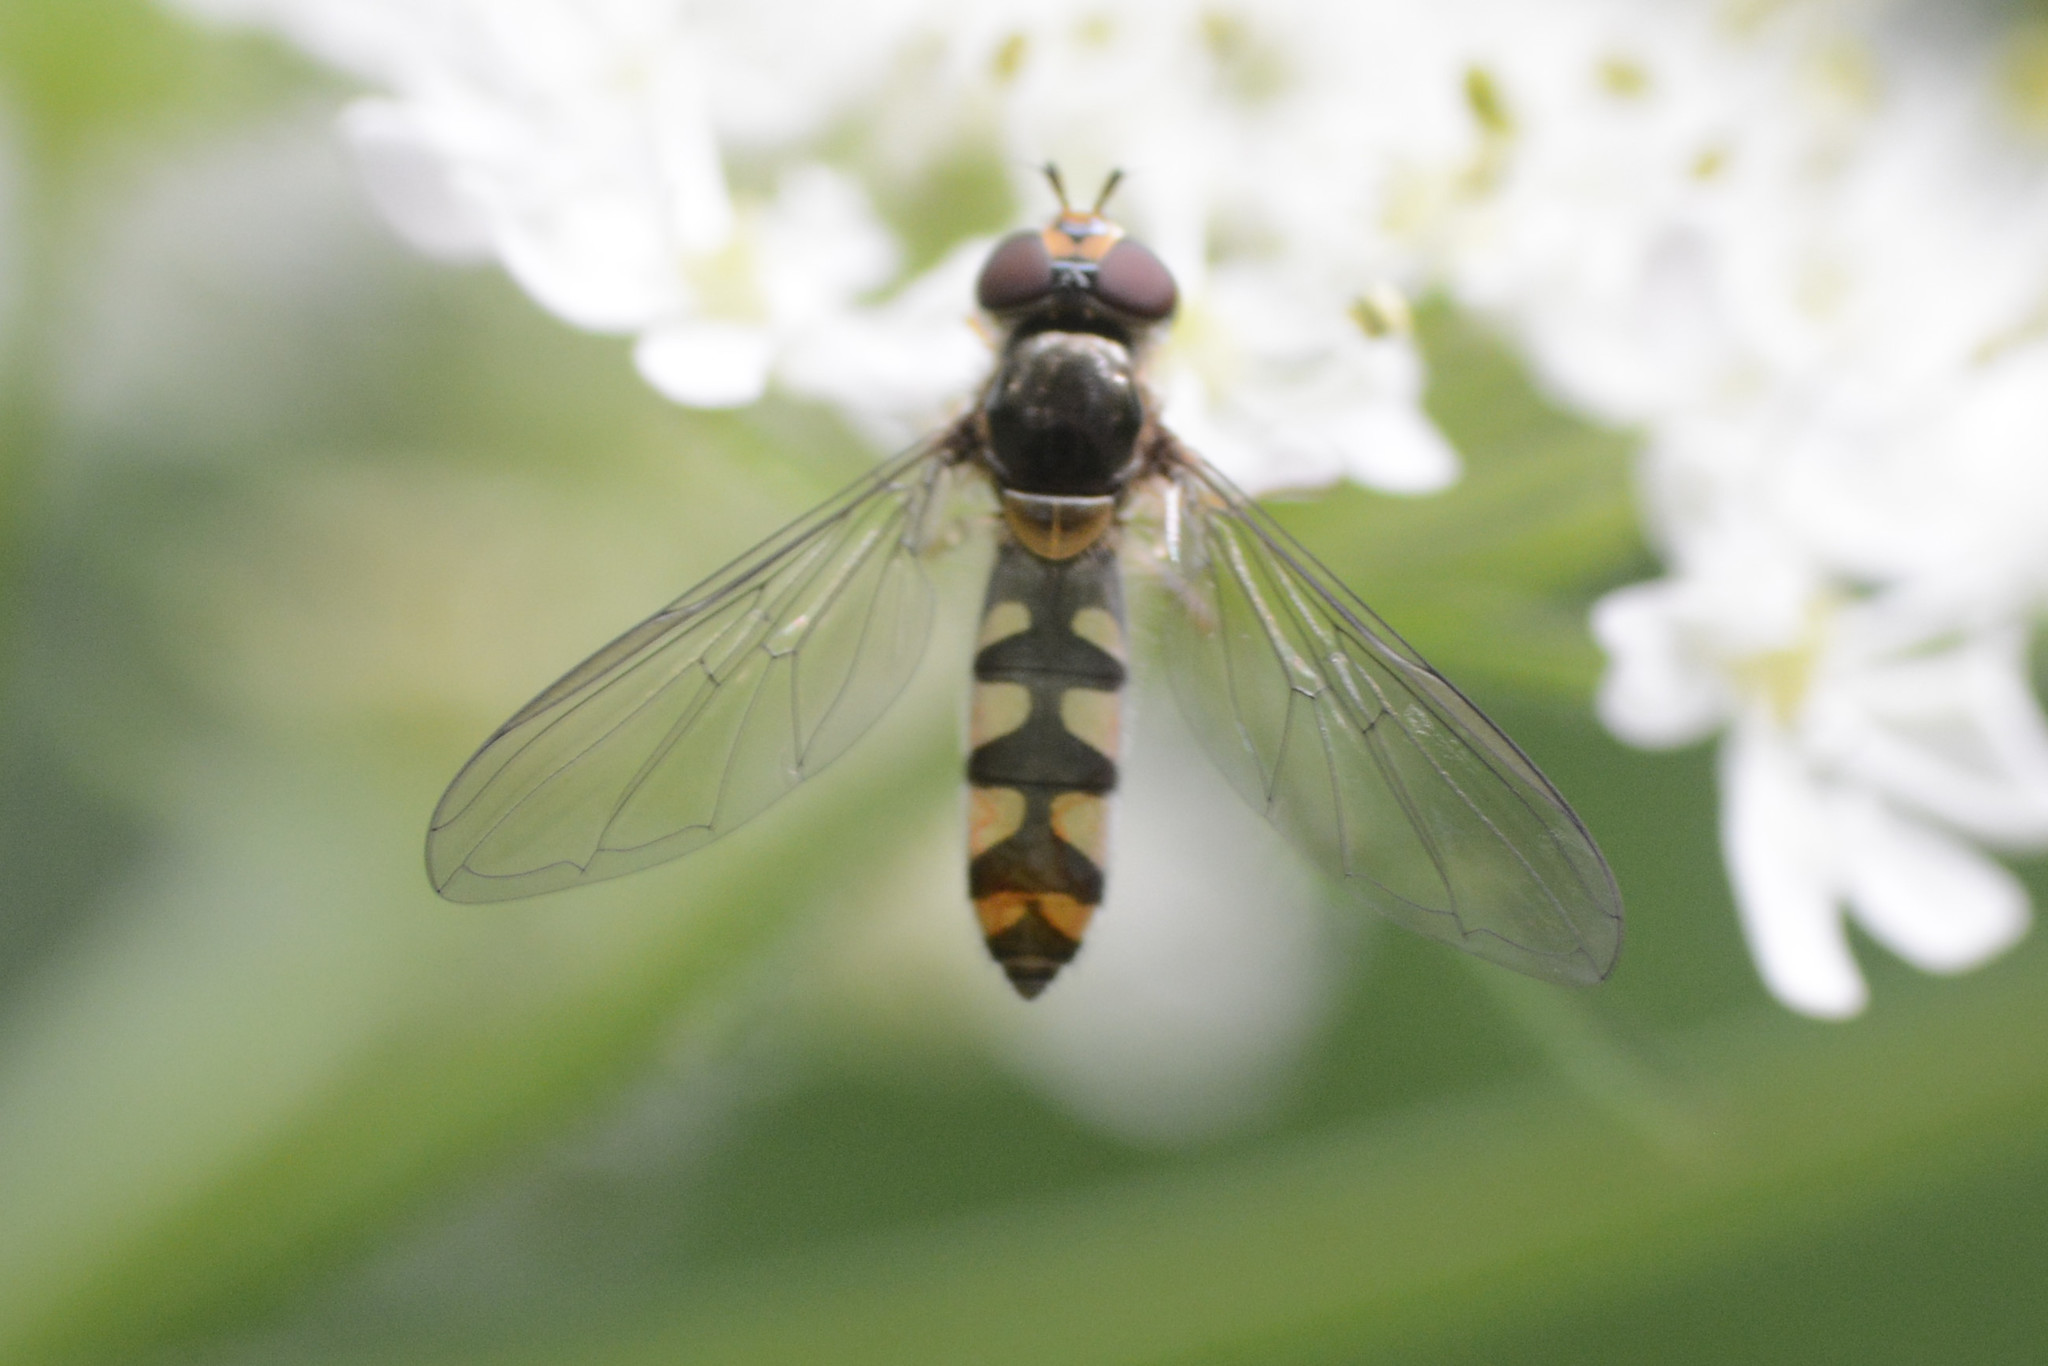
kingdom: Animalia
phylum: Arthropoda
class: Insecta
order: Diptera
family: Syrphidae
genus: Meliscaeva
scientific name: Meliscaeva auricollis
